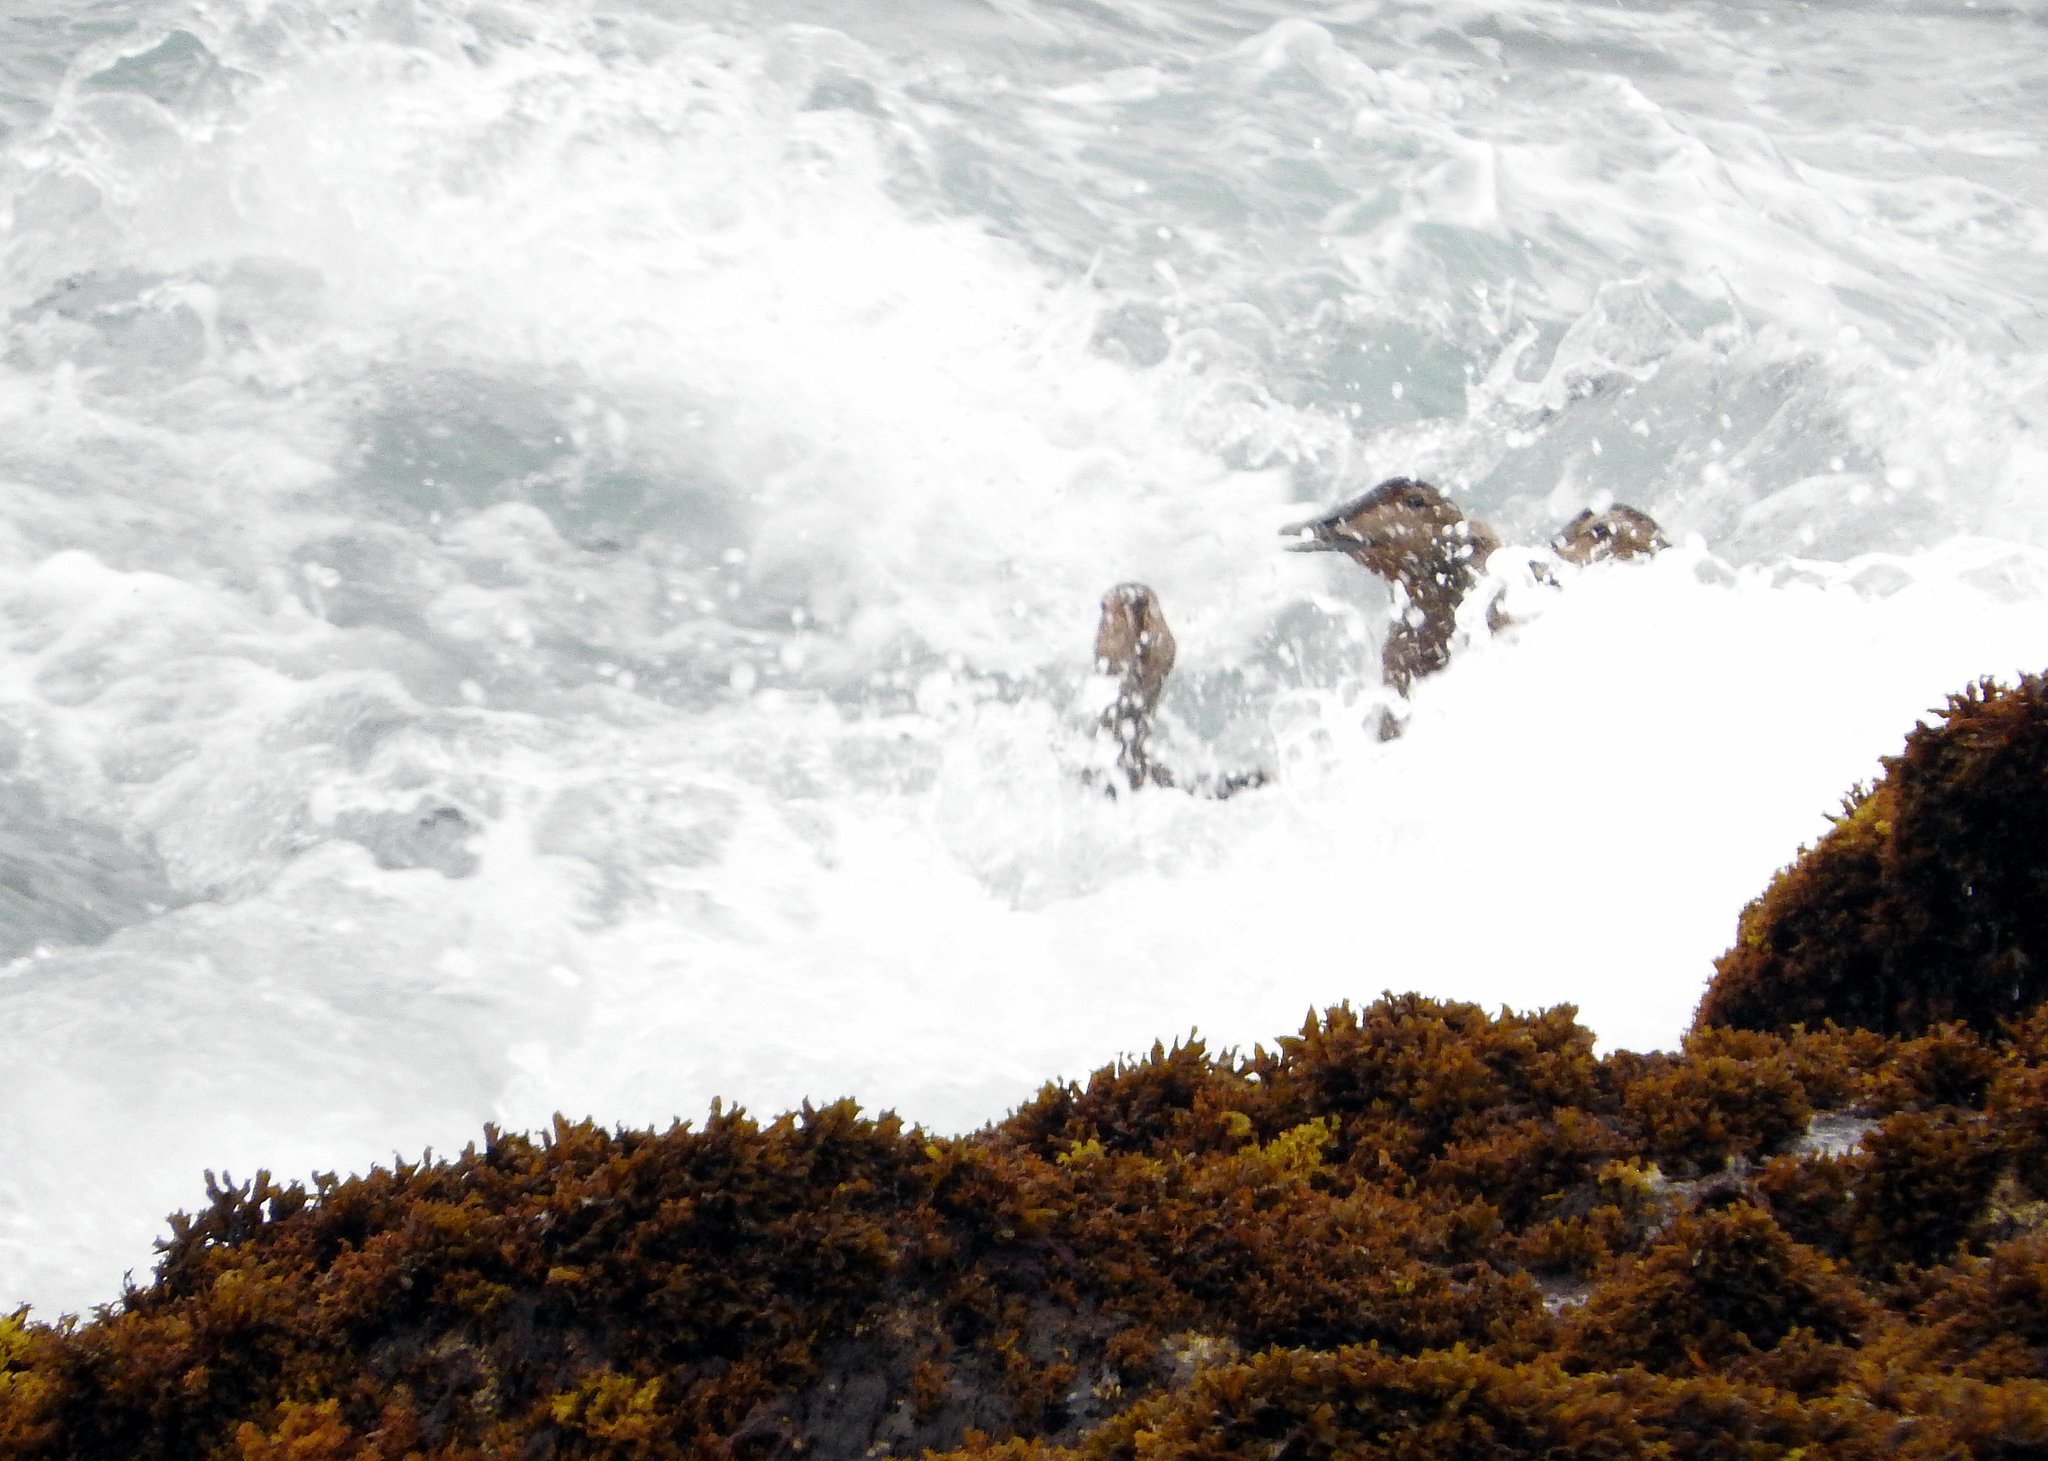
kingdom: Animalia
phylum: Chordata
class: Aves
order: Anseriformes
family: Anatidae
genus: Somateria
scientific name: Somateria mollissima
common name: Common eider
